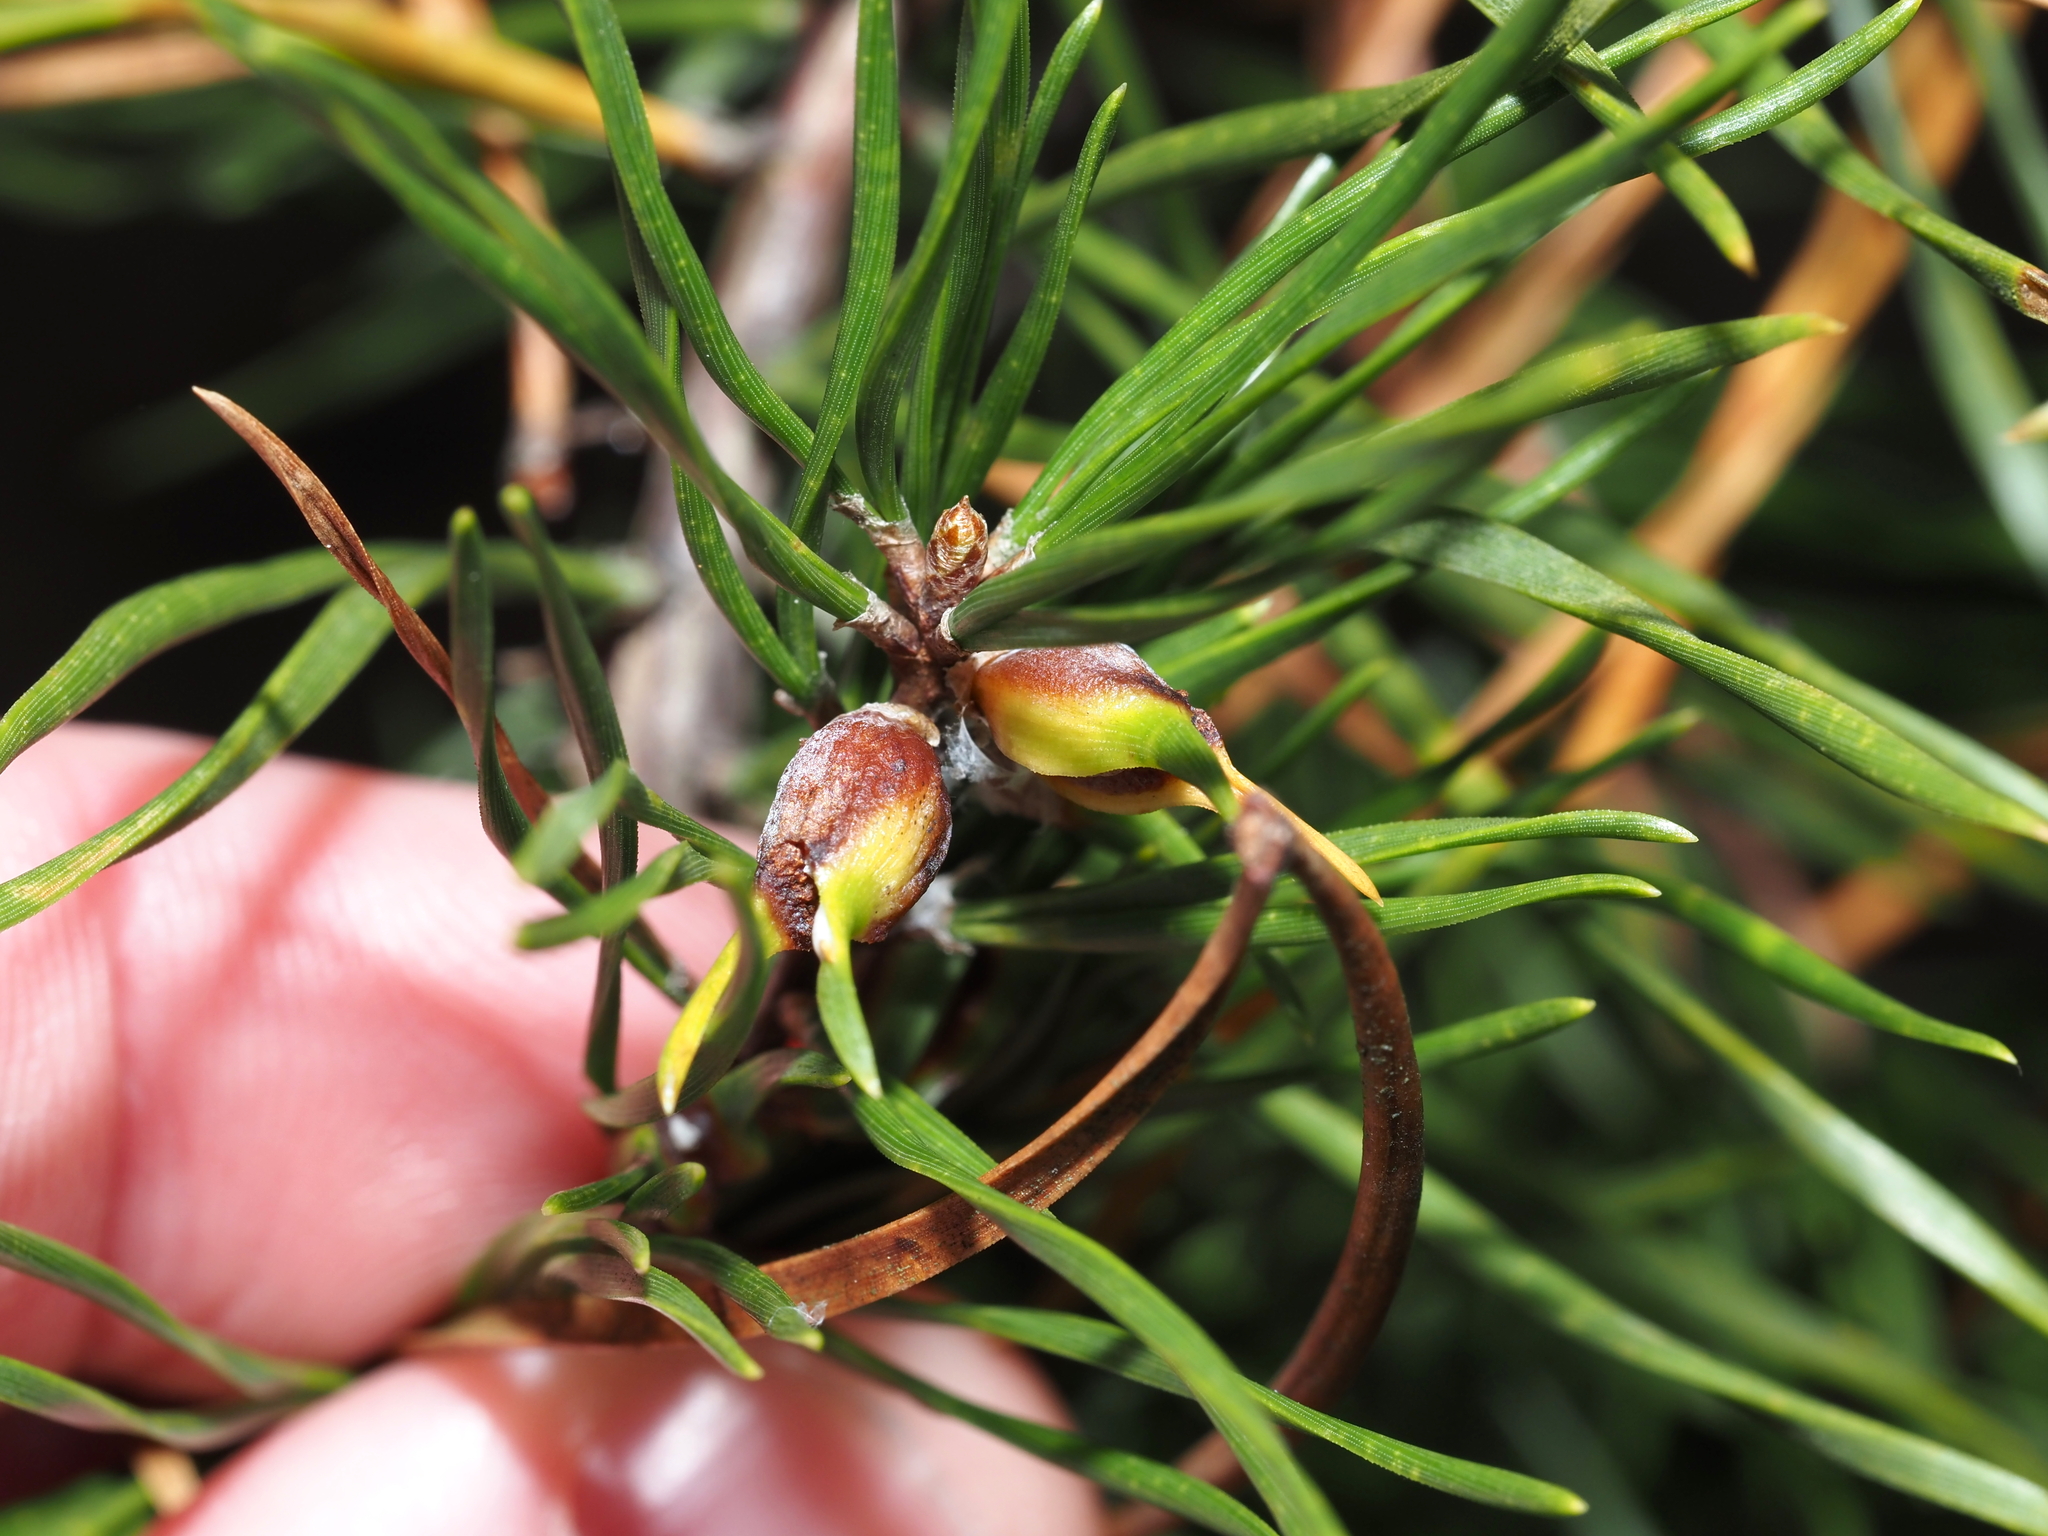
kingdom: Animalia
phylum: Arthropoda
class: Insecta
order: Diptera
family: Cecidomyiidae
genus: Thecodiplosis
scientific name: Thecodiplosis brachynteroides
